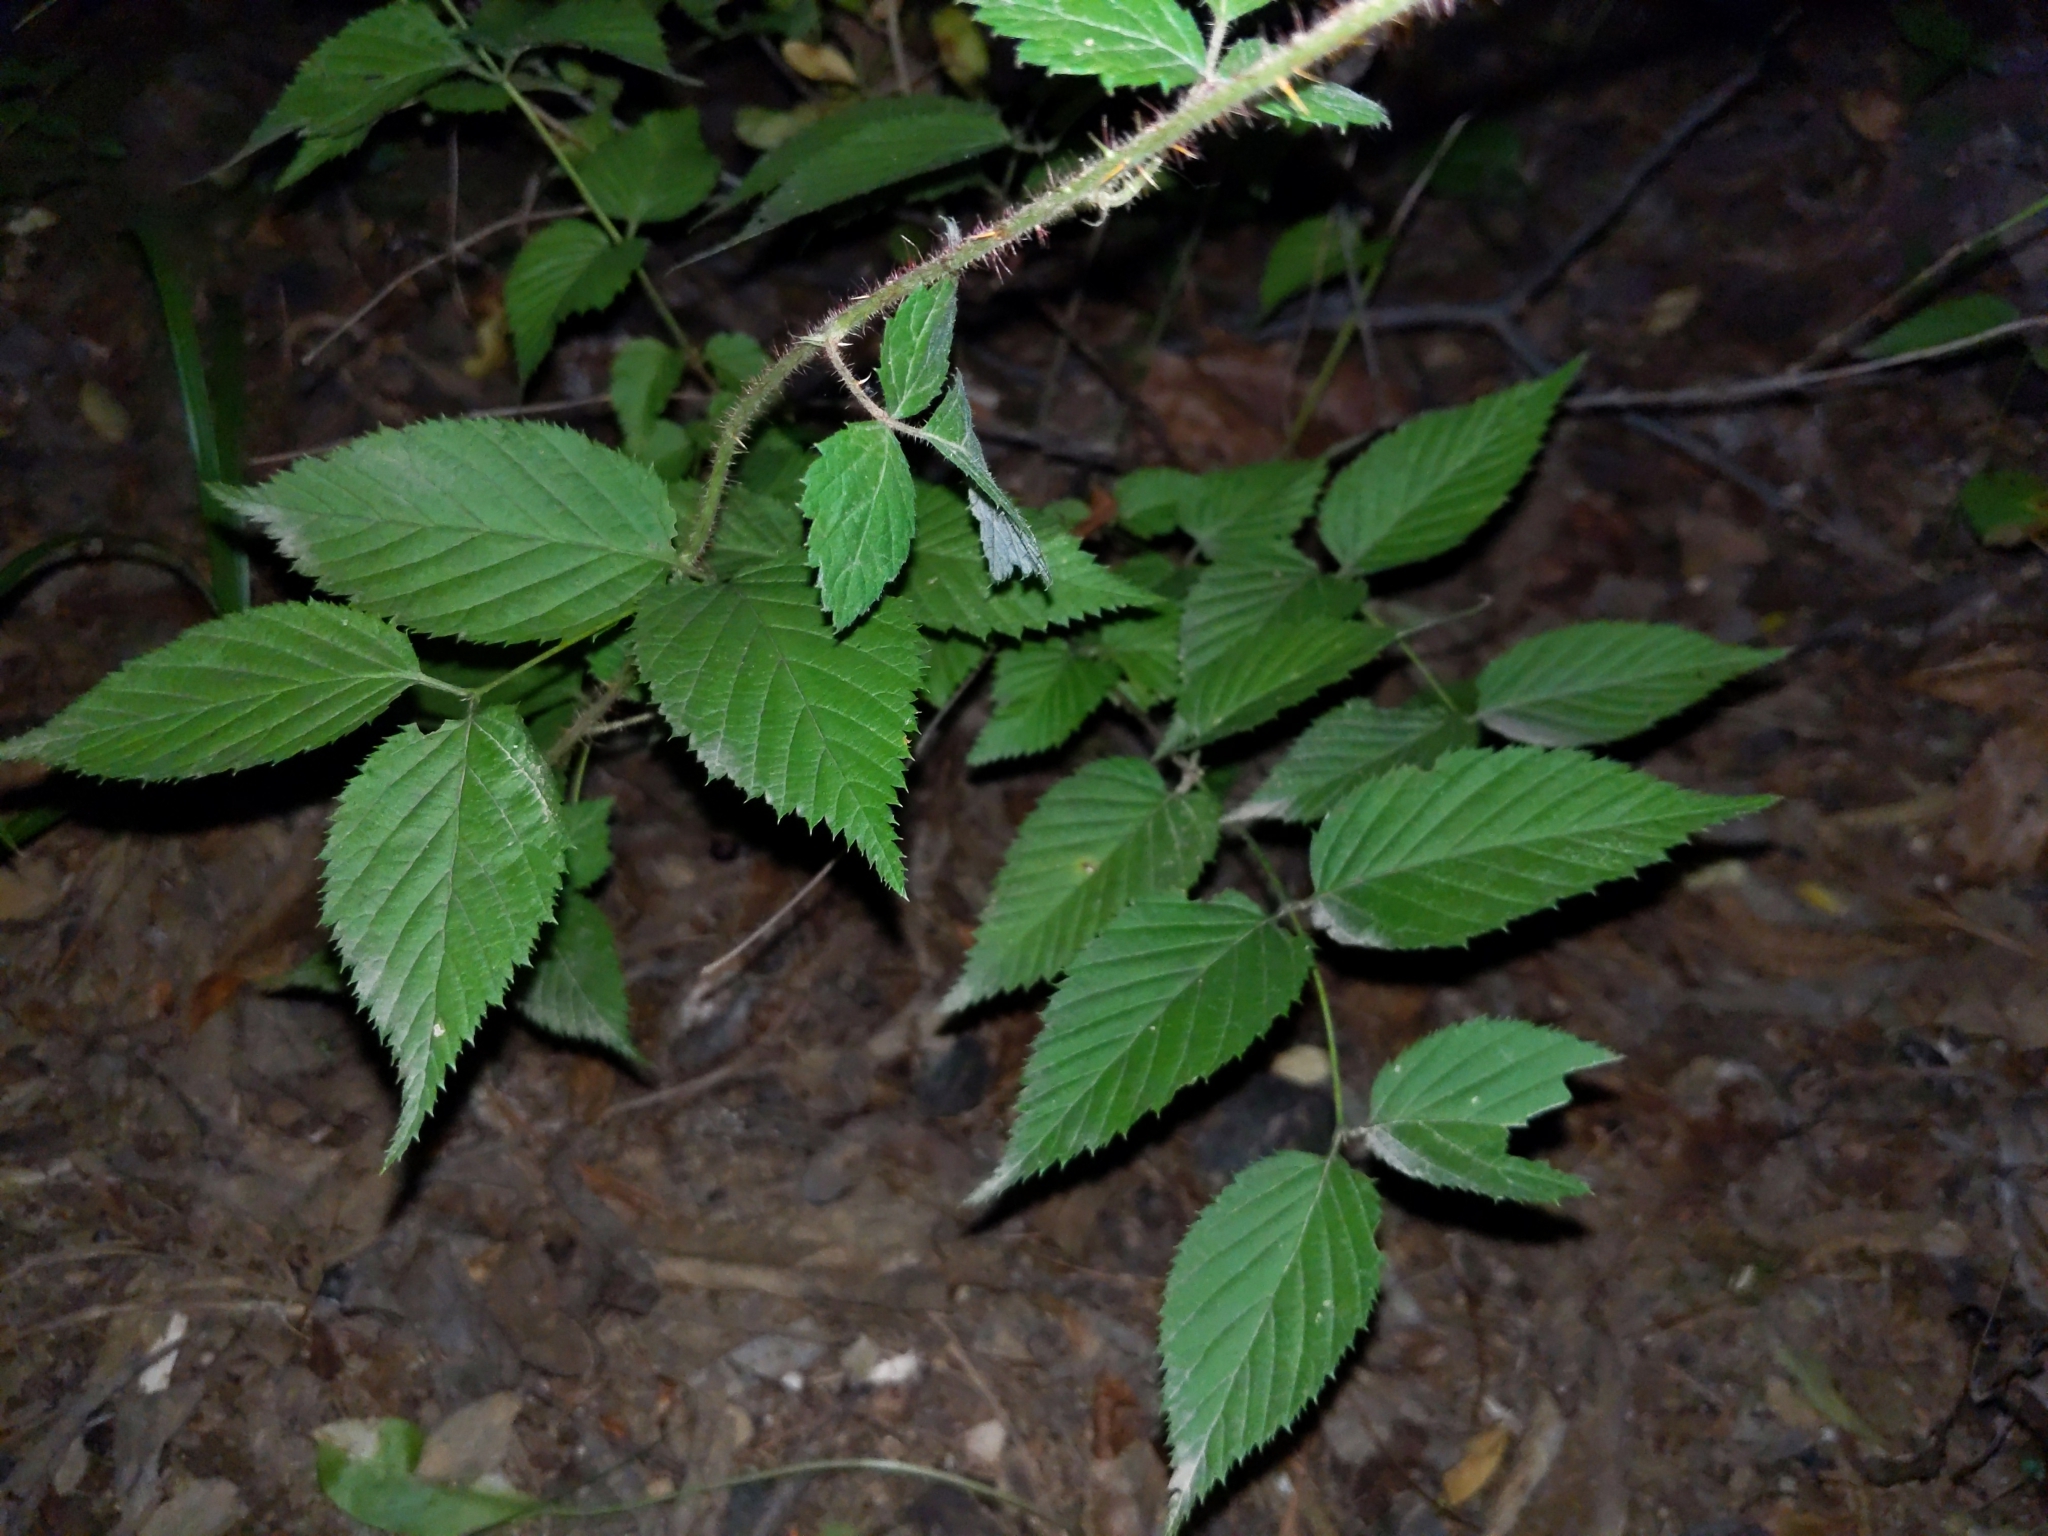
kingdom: Plantae
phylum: Tracheophyta
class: Magnoliopsida
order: Rosales
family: Rosaceae
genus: Rhodotypos
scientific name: Rhodotypos scandens
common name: Jetbead
